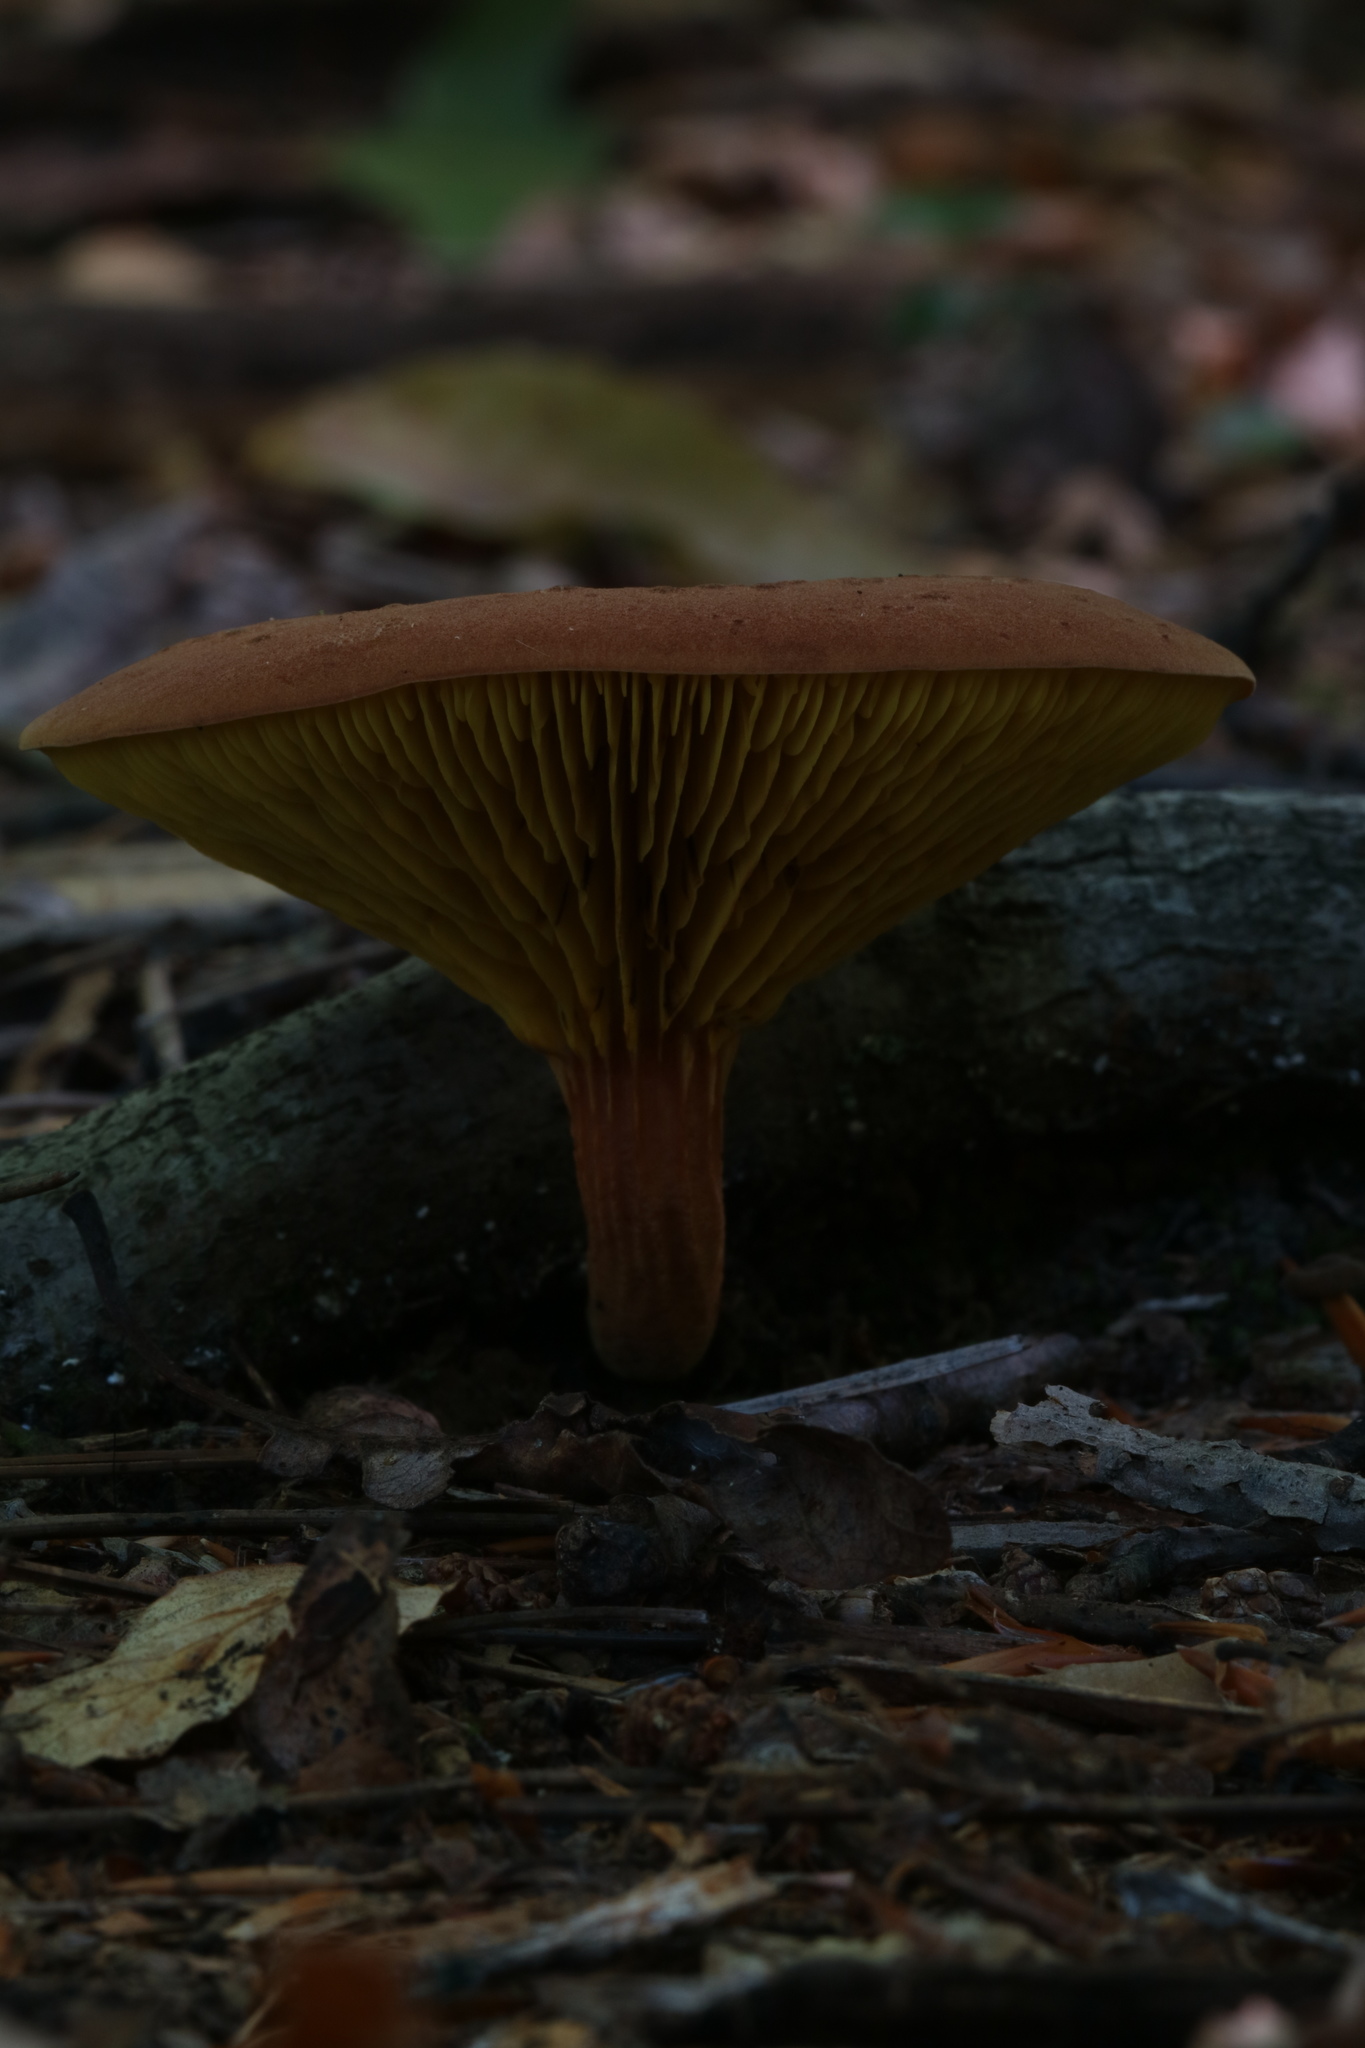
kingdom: Fungi
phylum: Basidiomycota
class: Agaricomycetes
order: Boletales
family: Boletaceae
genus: Phylloporus
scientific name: Phylloporus rhodoxanthus
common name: Golden gilled bolete
